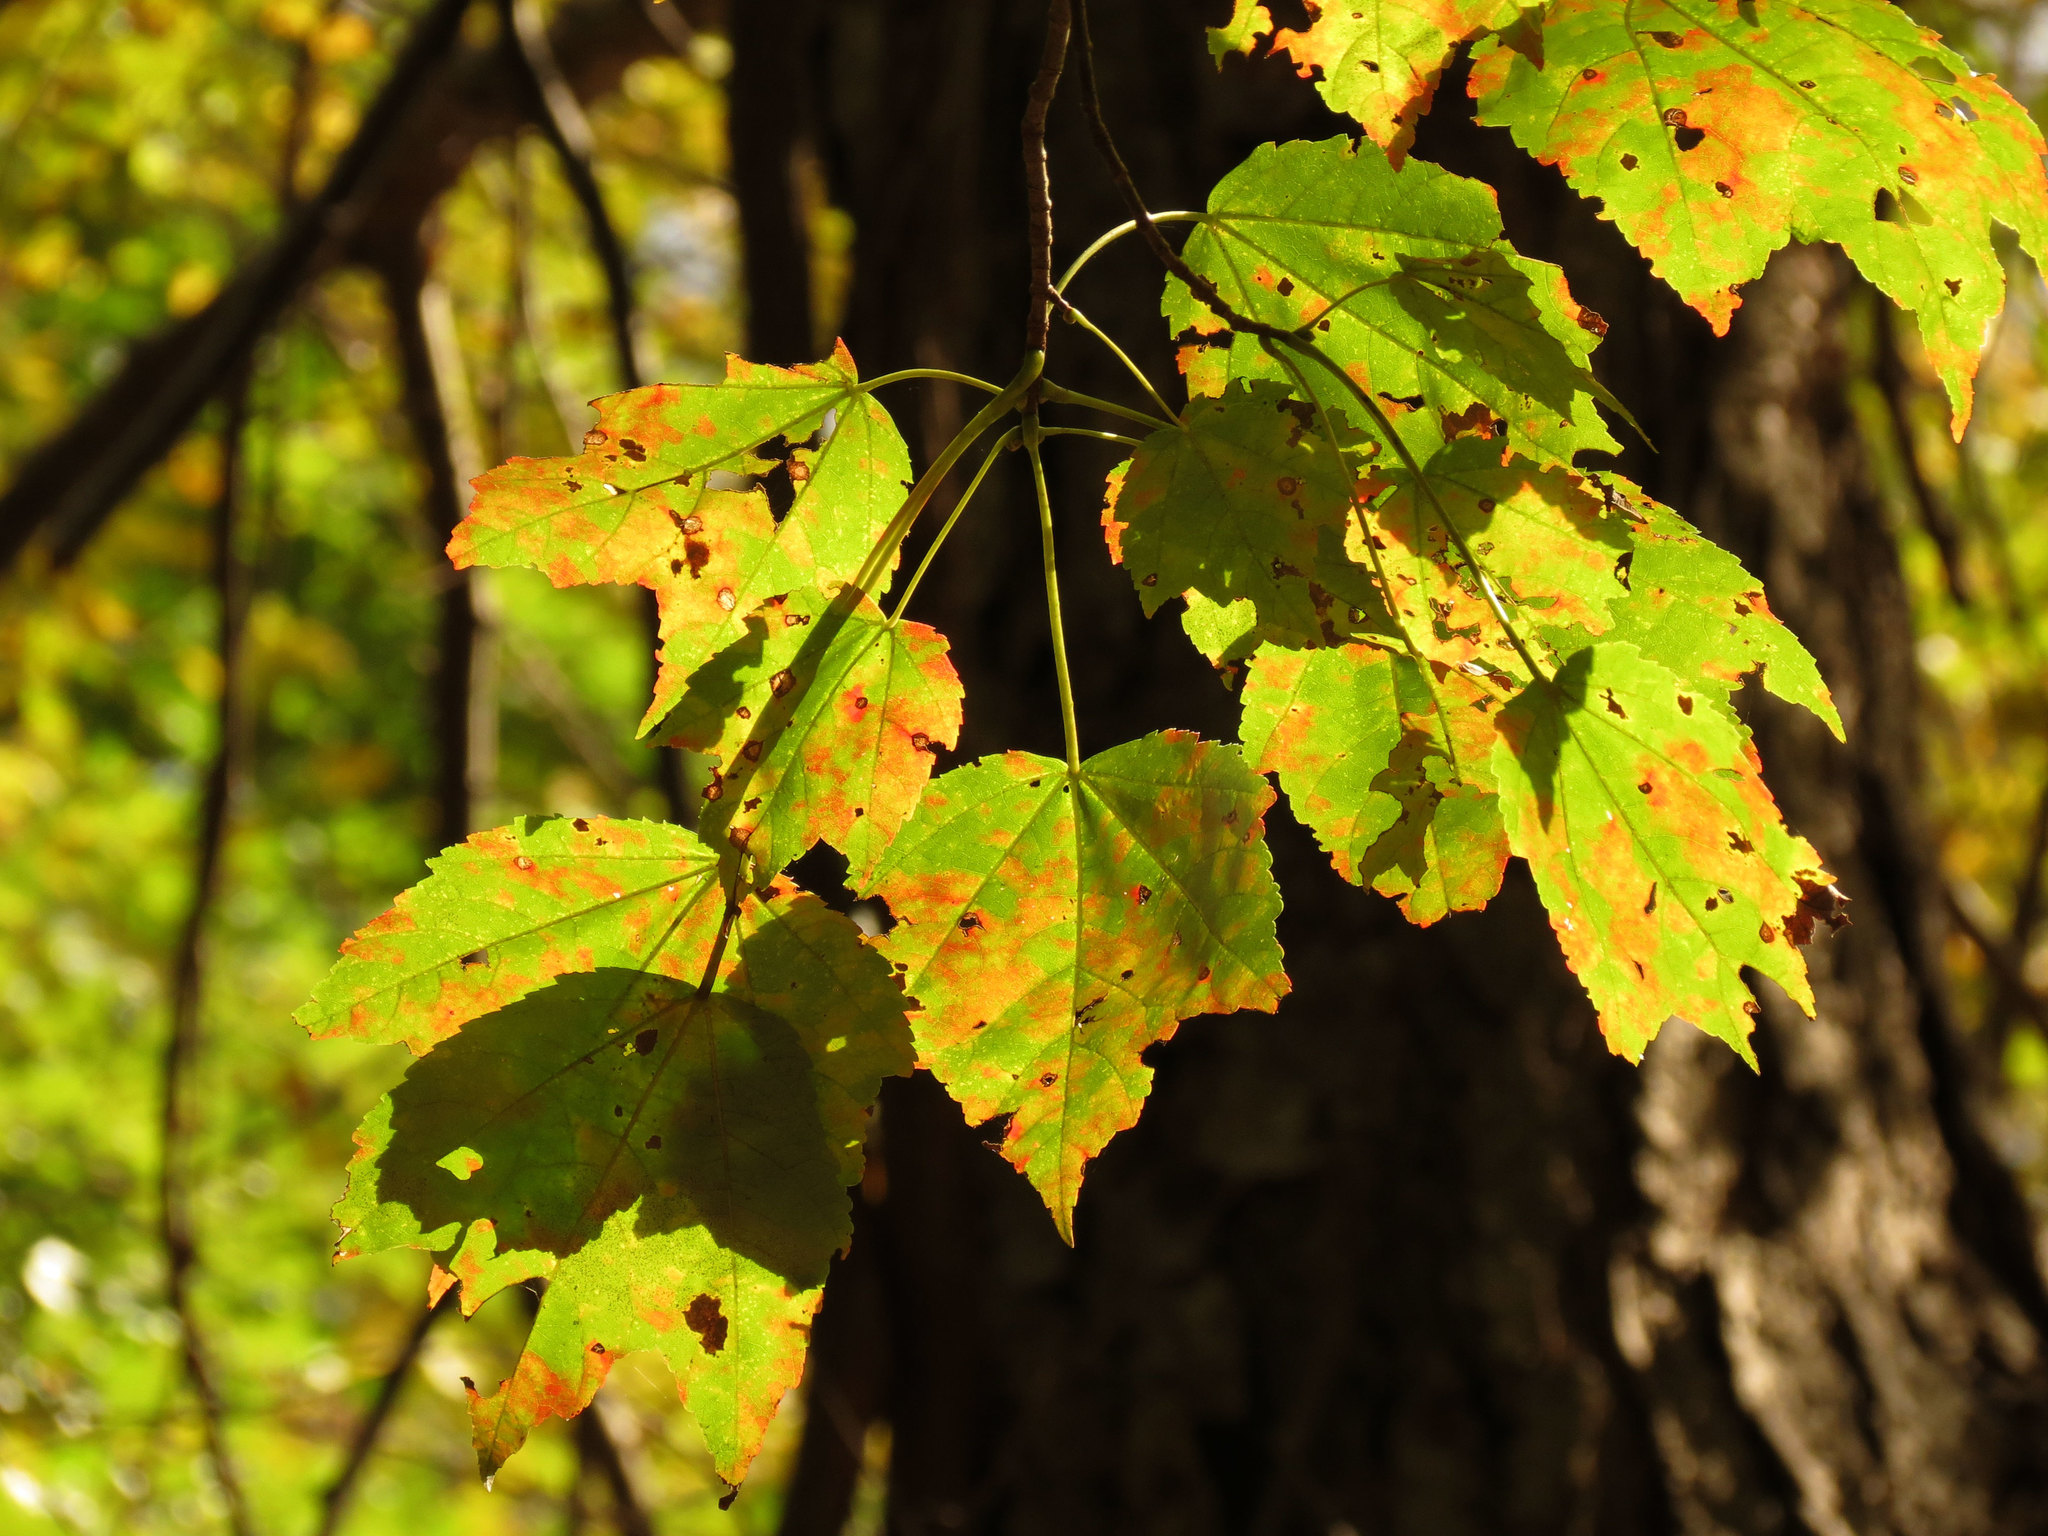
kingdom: Plantae
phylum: Tracheophyta
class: Magnoliopsida
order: Sapindales
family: Sapindaceae
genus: Acer
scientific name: Acer rubrum
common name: Red maple
